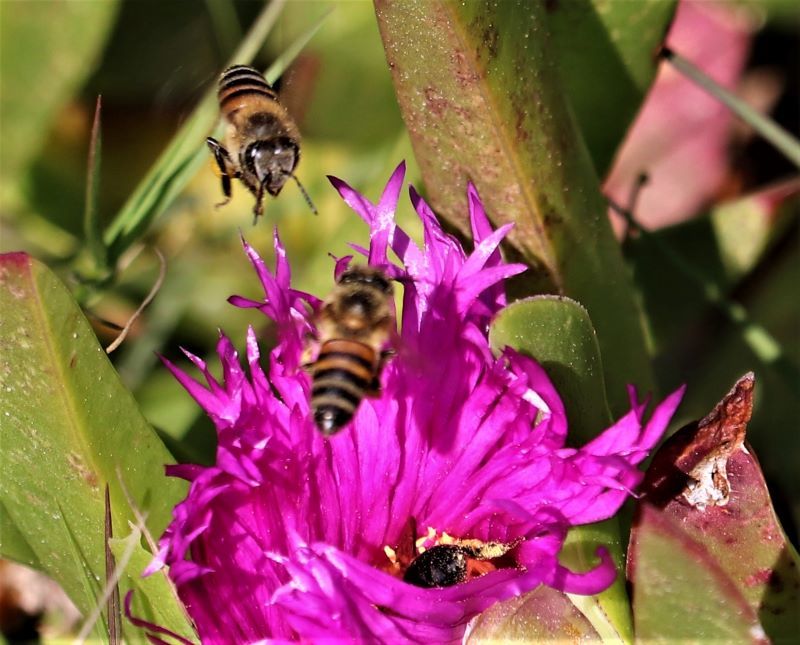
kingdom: Animalia
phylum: Arthropoda
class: Insecta
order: Hymenoptera
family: Apidae
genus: Apis
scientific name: Apis mellifera
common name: Honey bee
